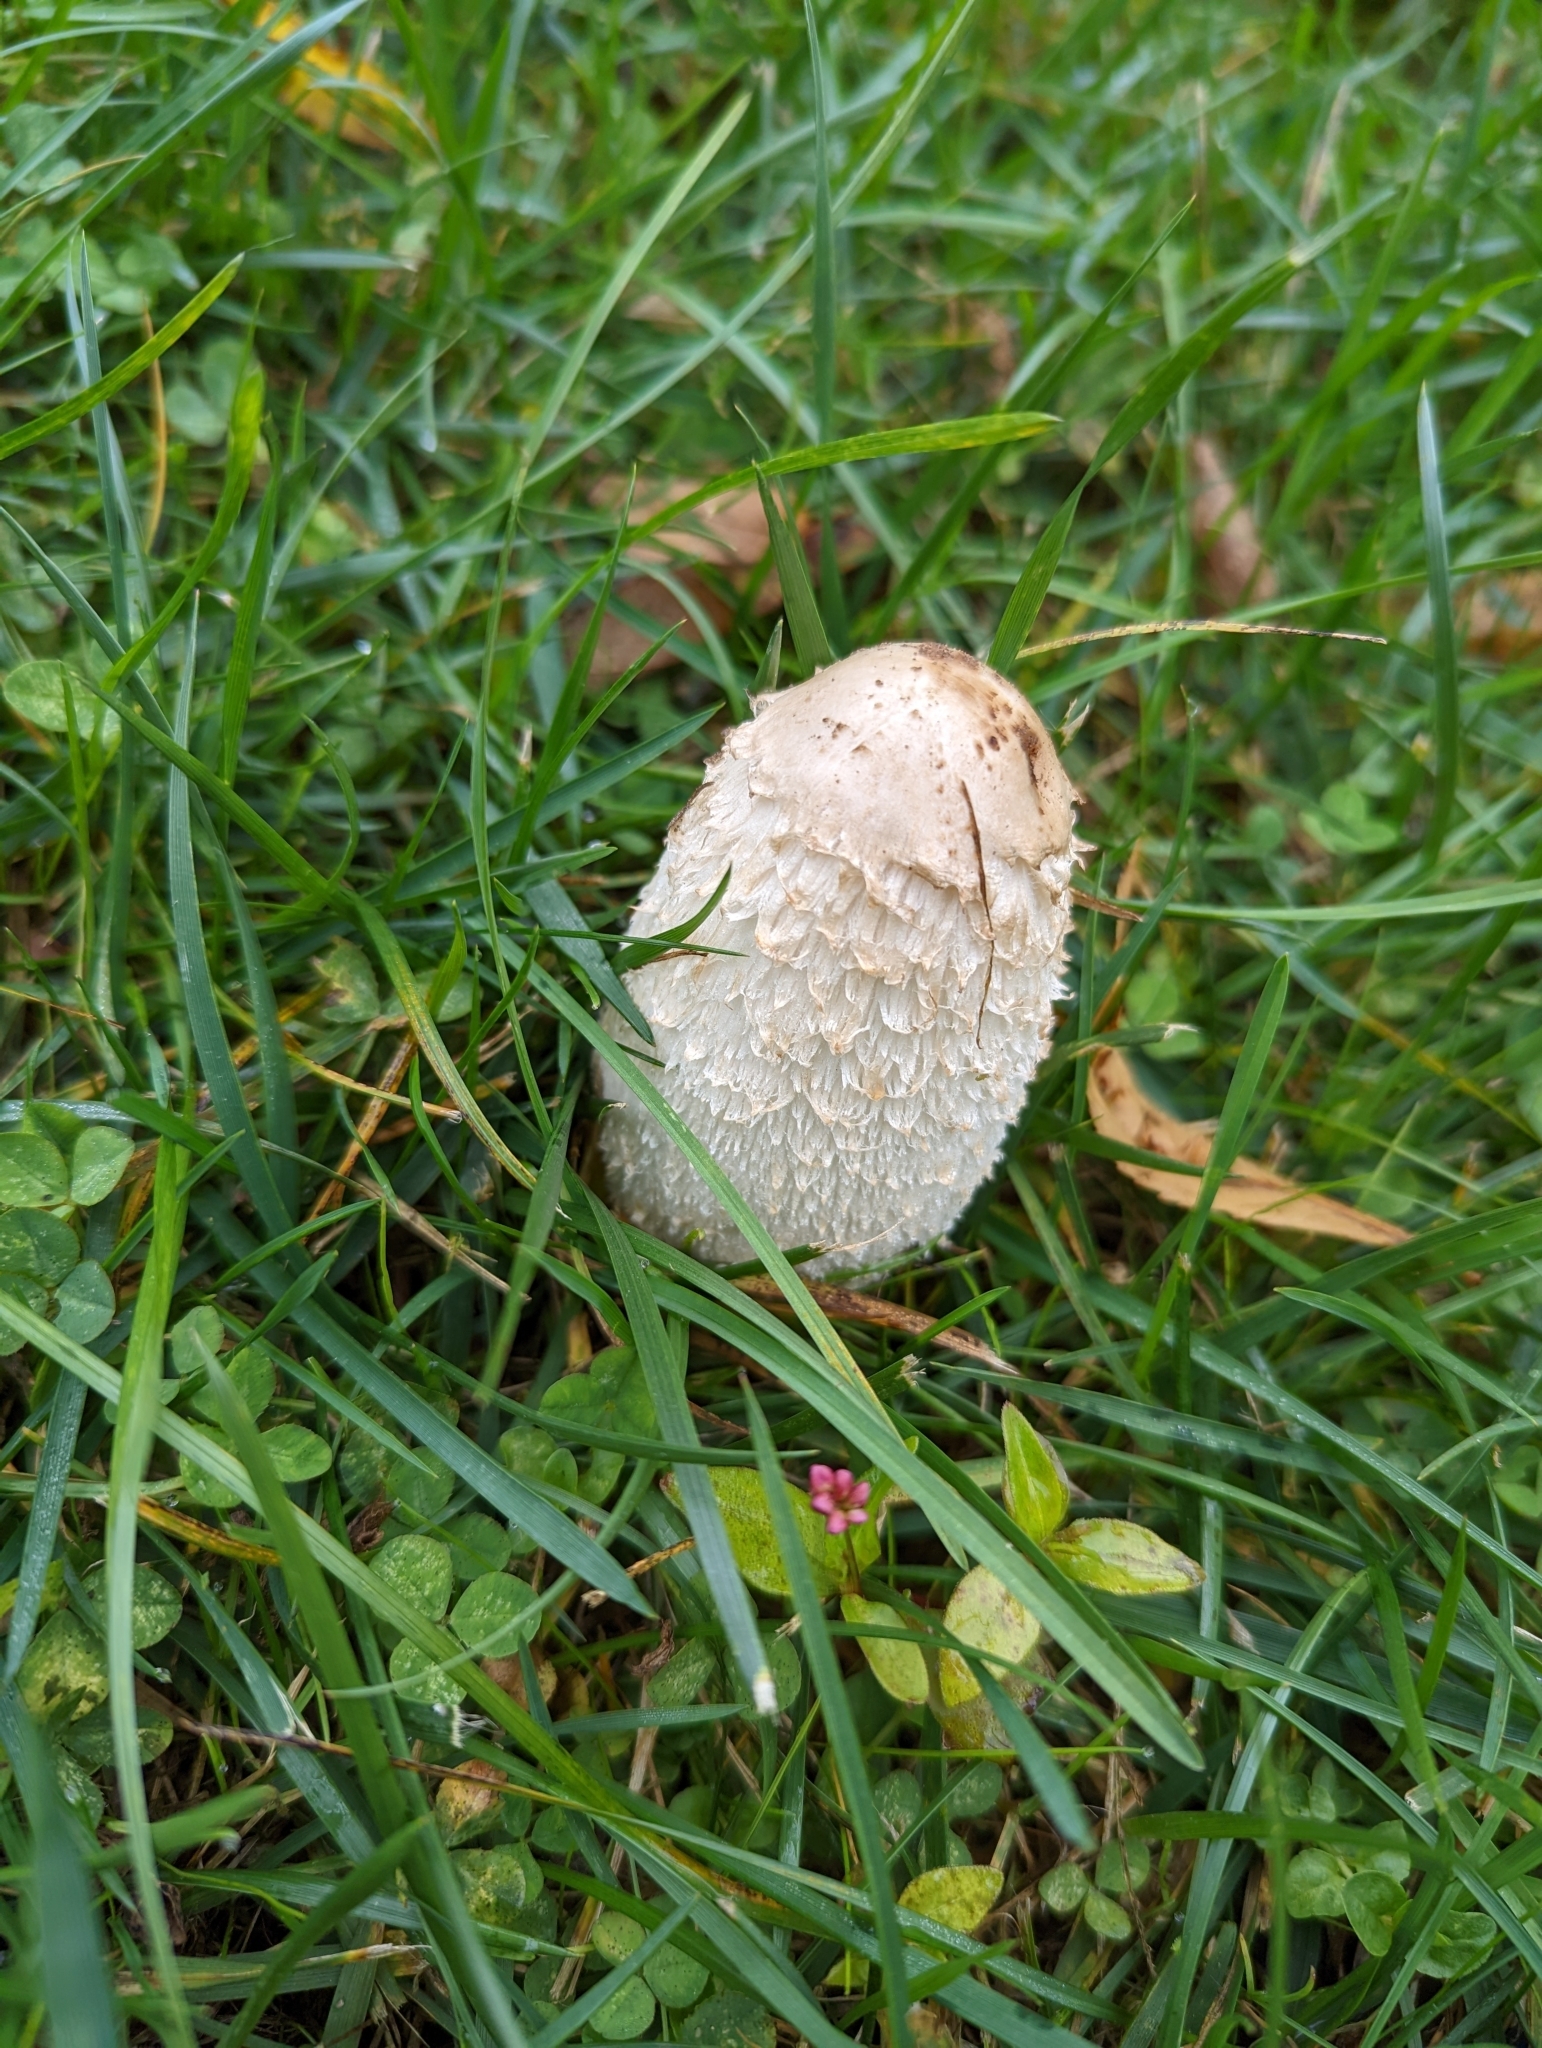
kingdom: Fungi
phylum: Basidiomycota
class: Agaricomycetes
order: Agaricales
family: Agaricaceae
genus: Coprinus
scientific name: Coprinus comatus
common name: Lawyer's wig
